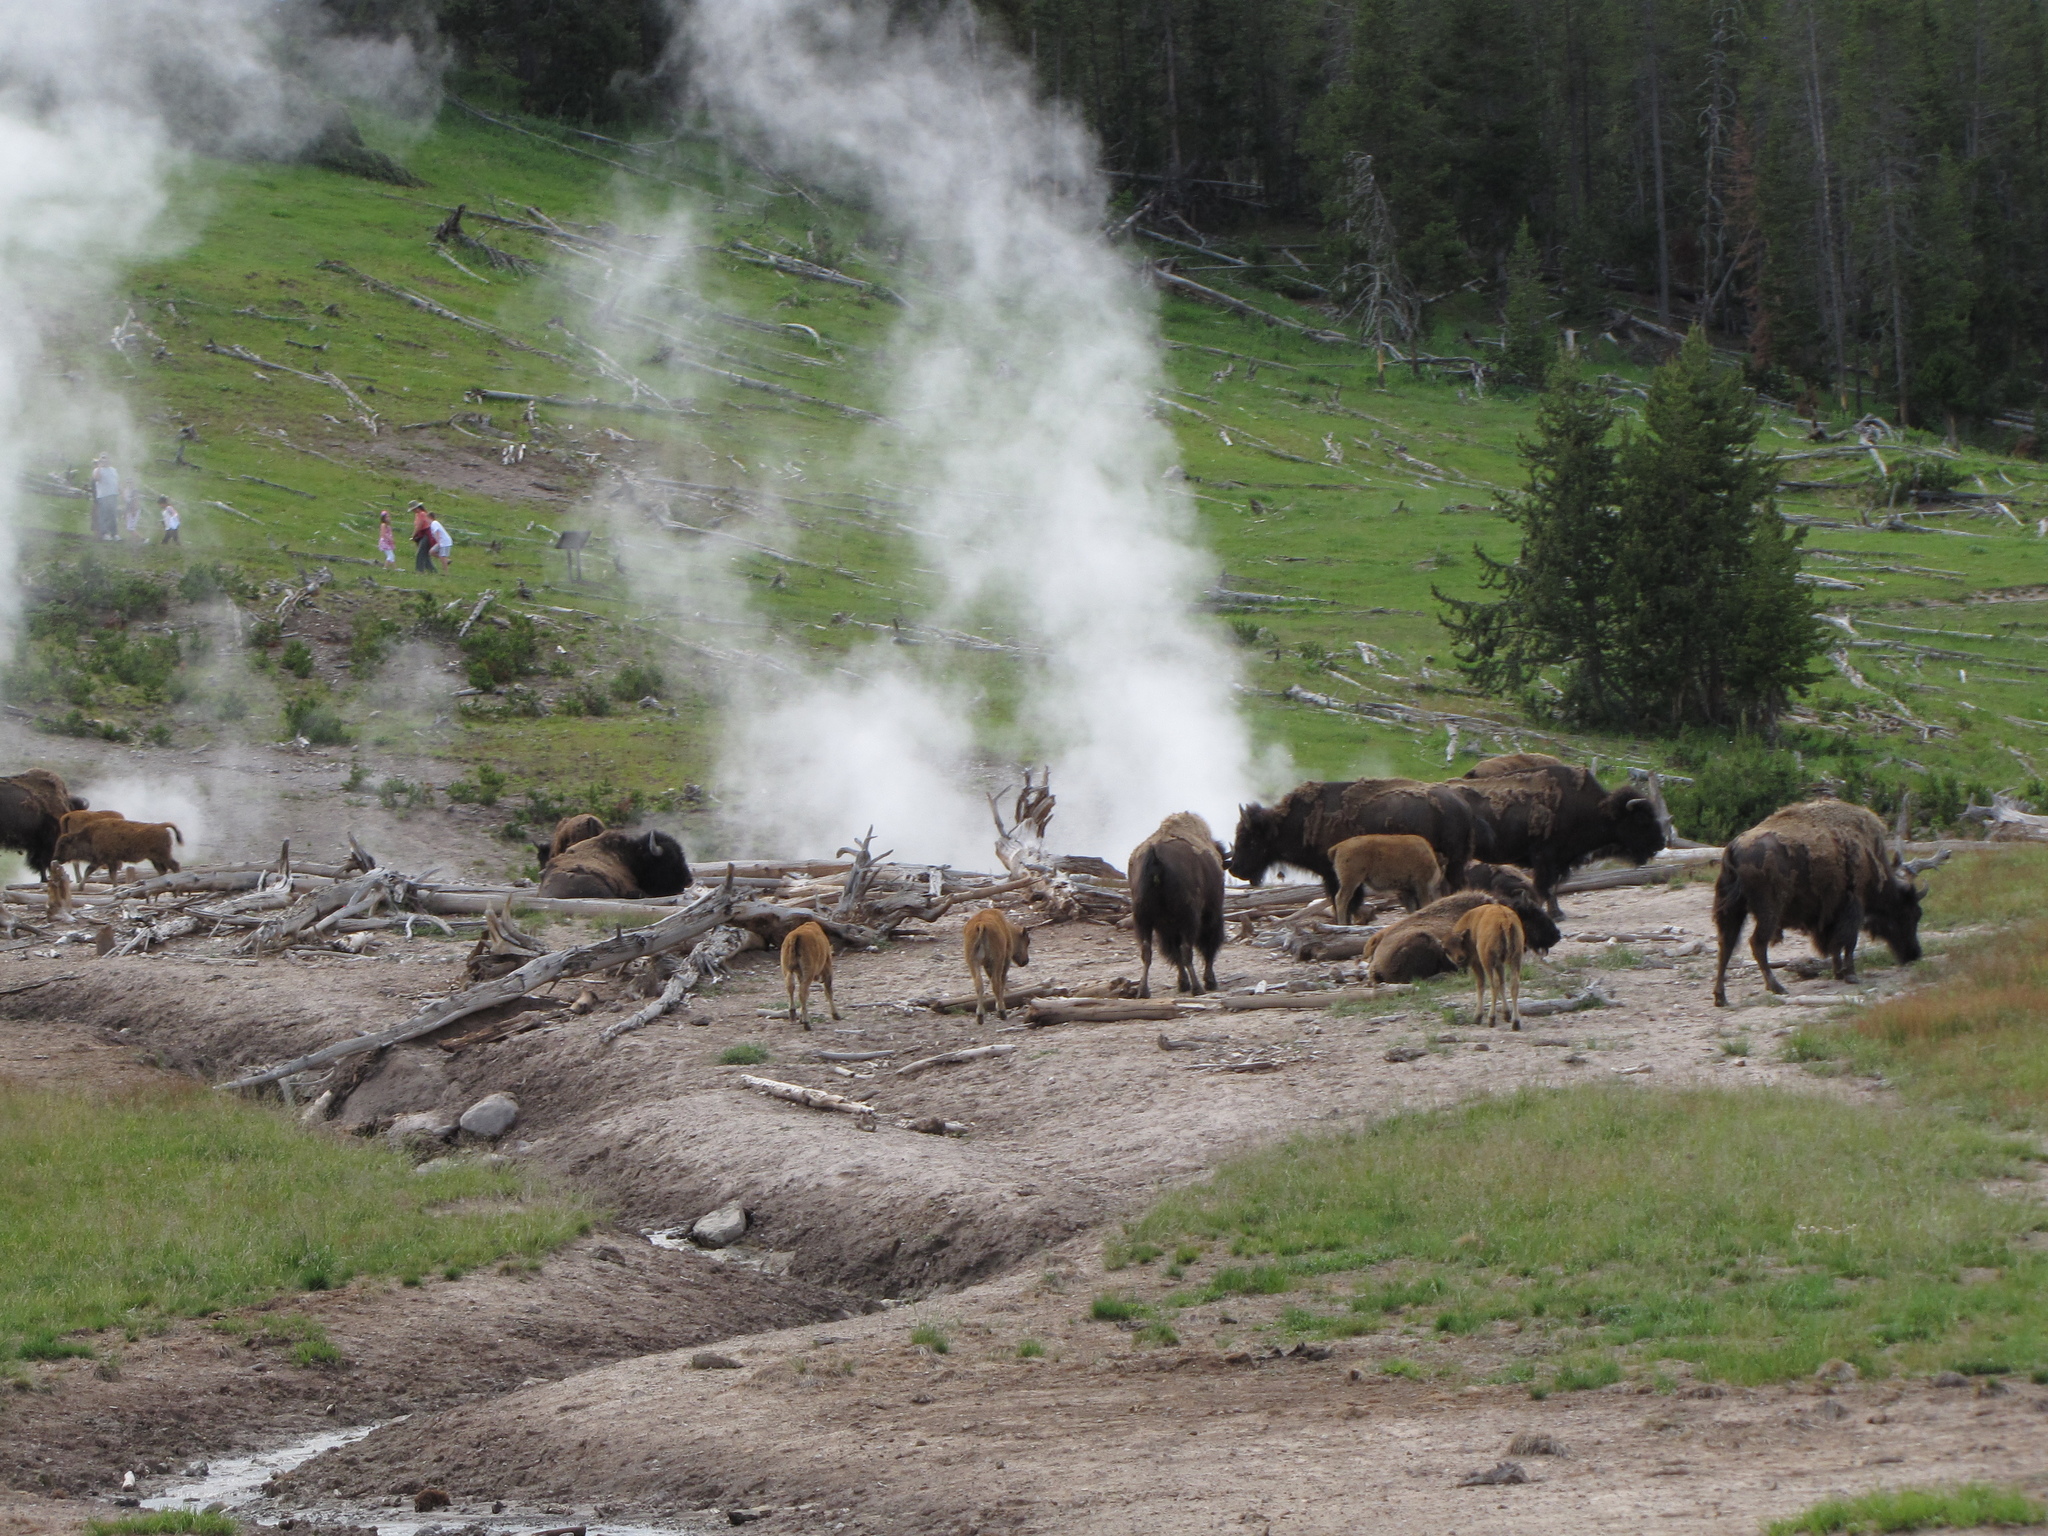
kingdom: Animalia
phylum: Chordata
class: Mammalia
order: Artiodactyla
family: Bovidae
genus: Bison
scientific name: Bison bison
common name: American bison
